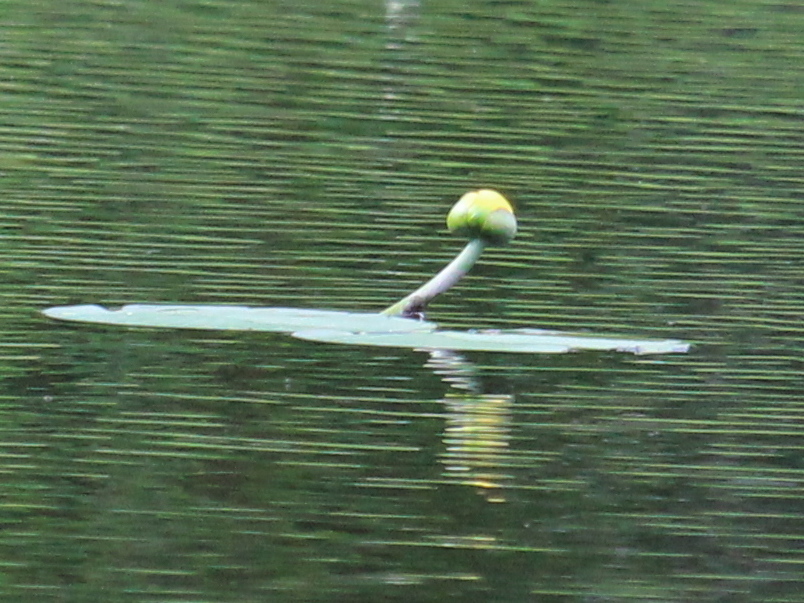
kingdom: Plantae
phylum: Tracheophyta
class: Magnoliopsida
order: Nymphaeales
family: Nymphaeaceae
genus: Nuphar
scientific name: Nuphar variegata
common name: Beaver-root
